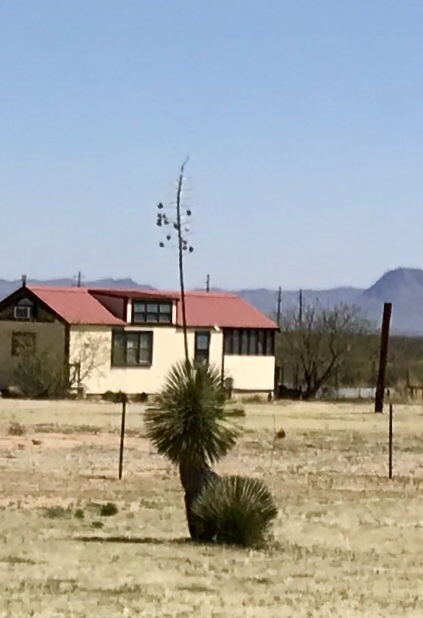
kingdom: Plantae
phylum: Tracheophyta
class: Liliopsida
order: Asparagales
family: Asparagaceae
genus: Yucca
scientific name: Yucca elata
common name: Palmella
